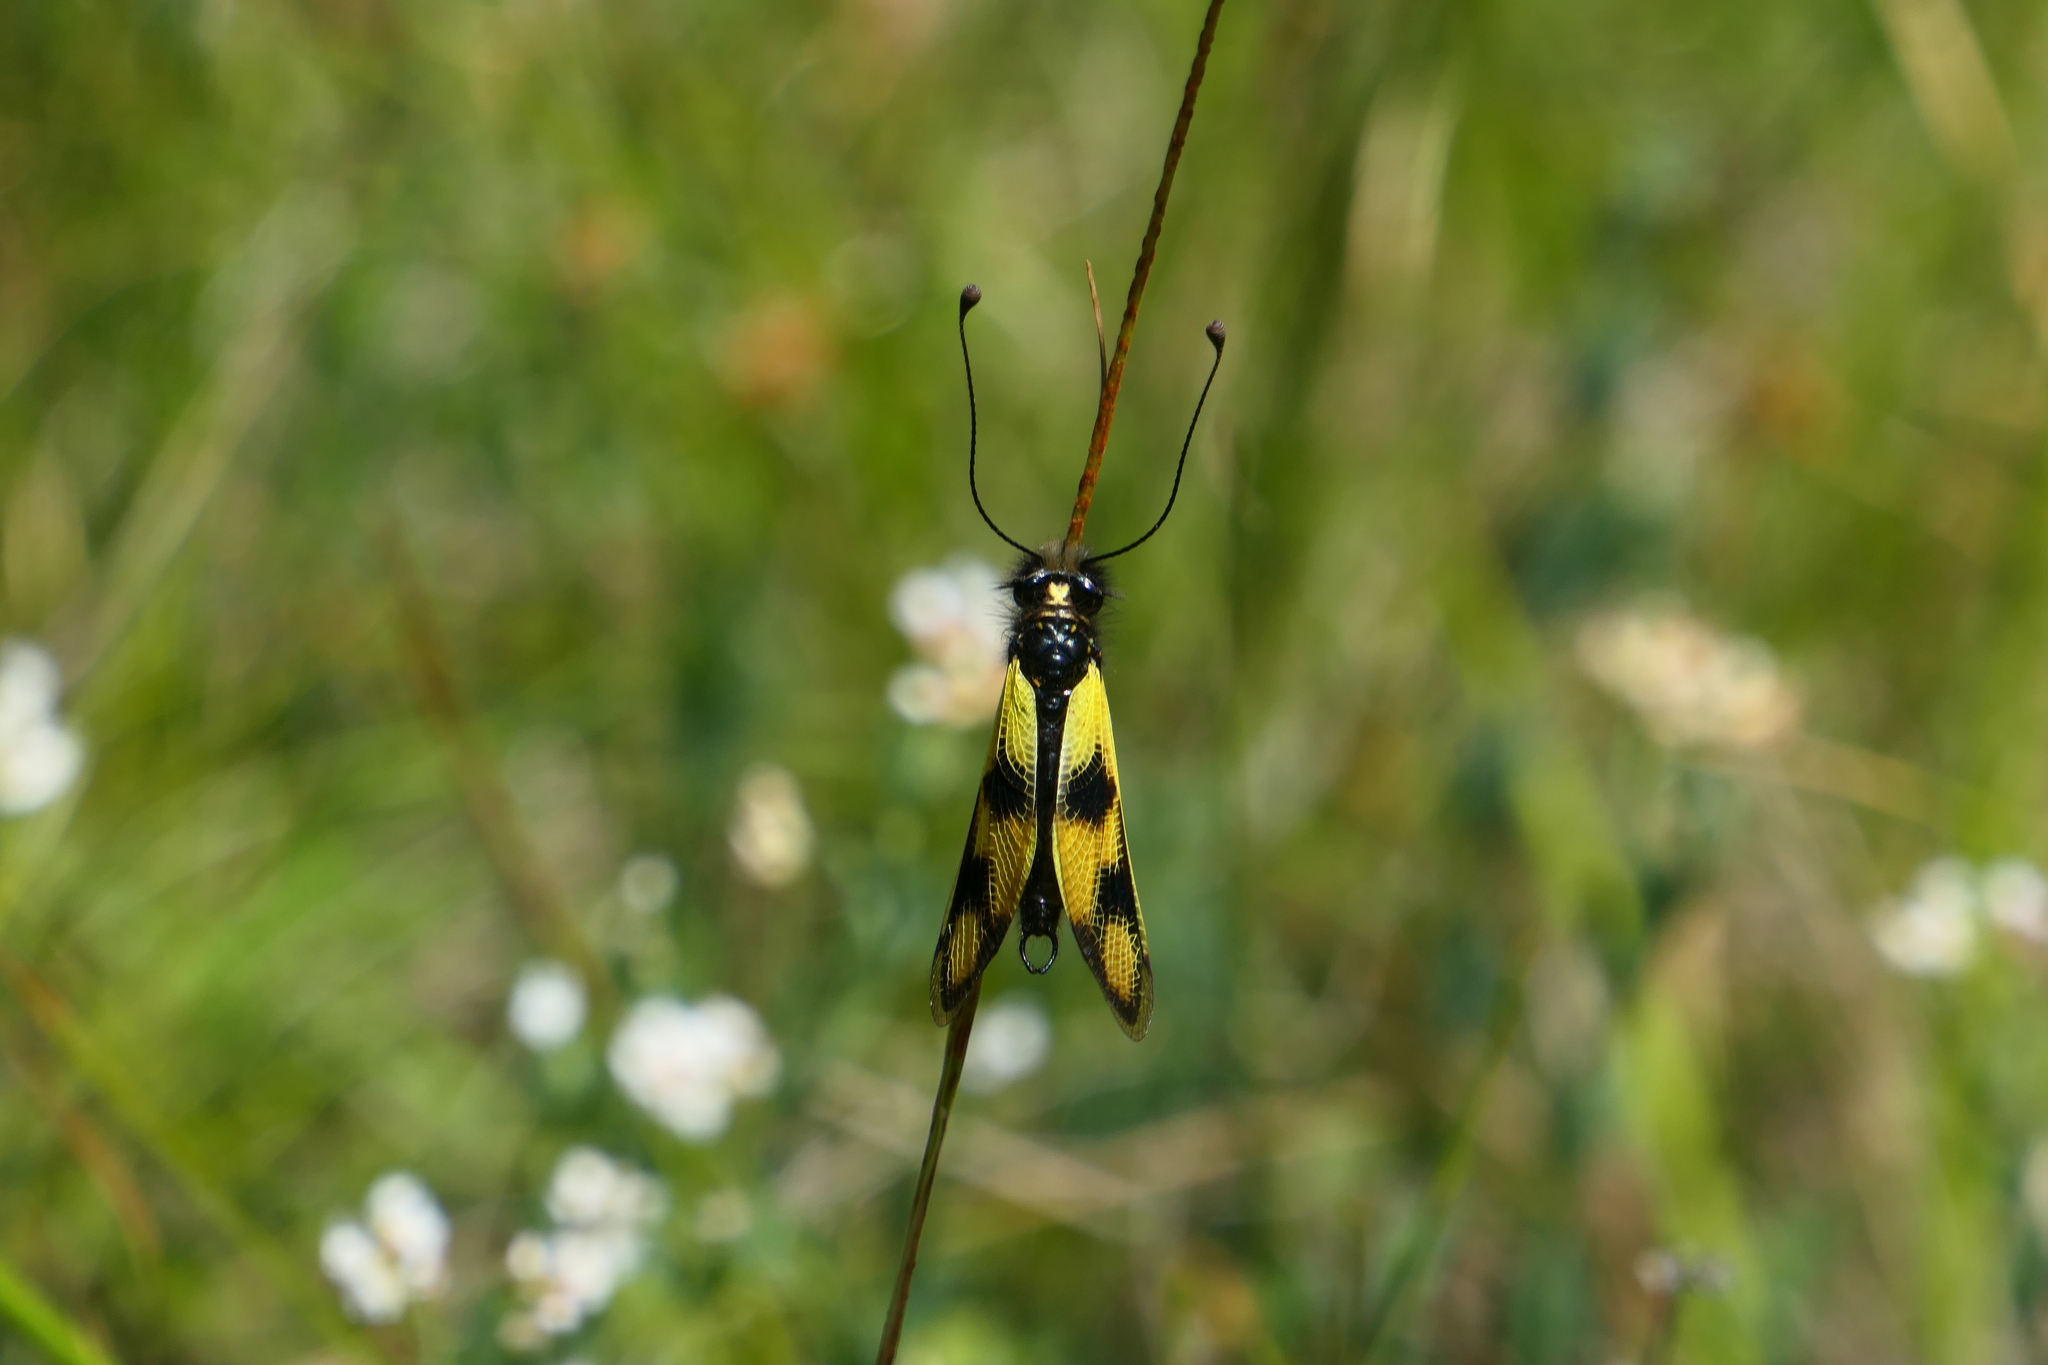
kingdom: Animalia
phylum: Arthropoda
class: Insecta
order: Neuroptera
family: Ascalaphidae
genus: Libelloides
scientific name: Libelloides macaronius
